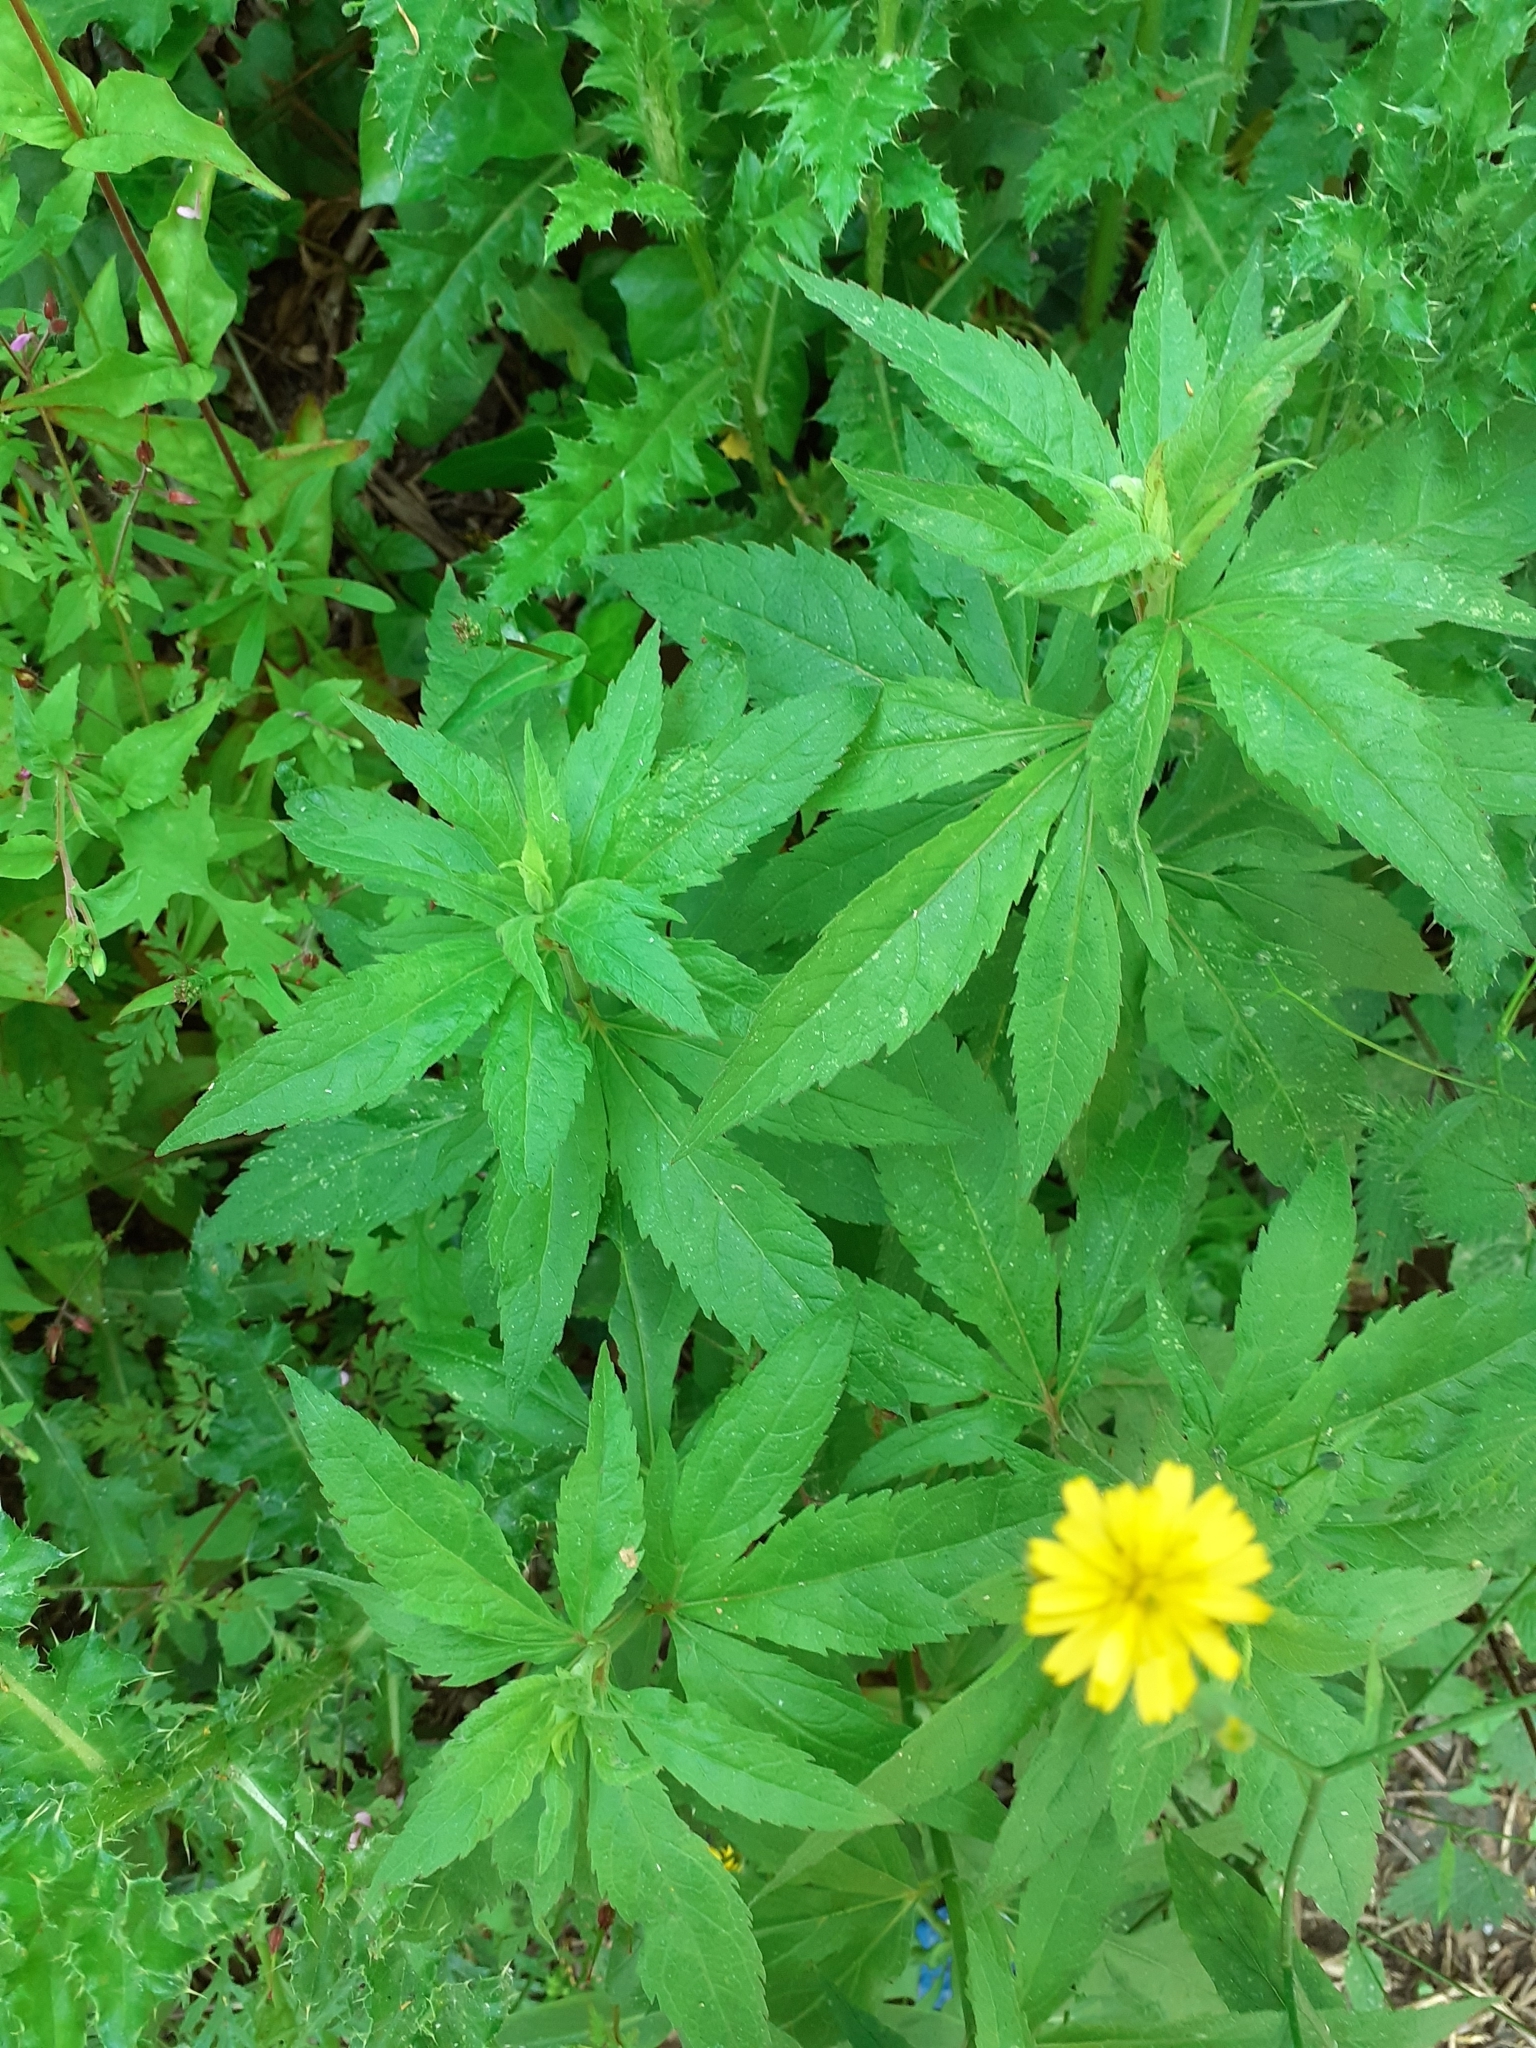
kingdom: Plantae
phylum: Tracheophyta
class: Magnoliopsida
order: Asterales
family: Asteraceae
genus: Eupatorium
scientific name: Eupatorium cannabinum
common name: Hemp-agrimony
